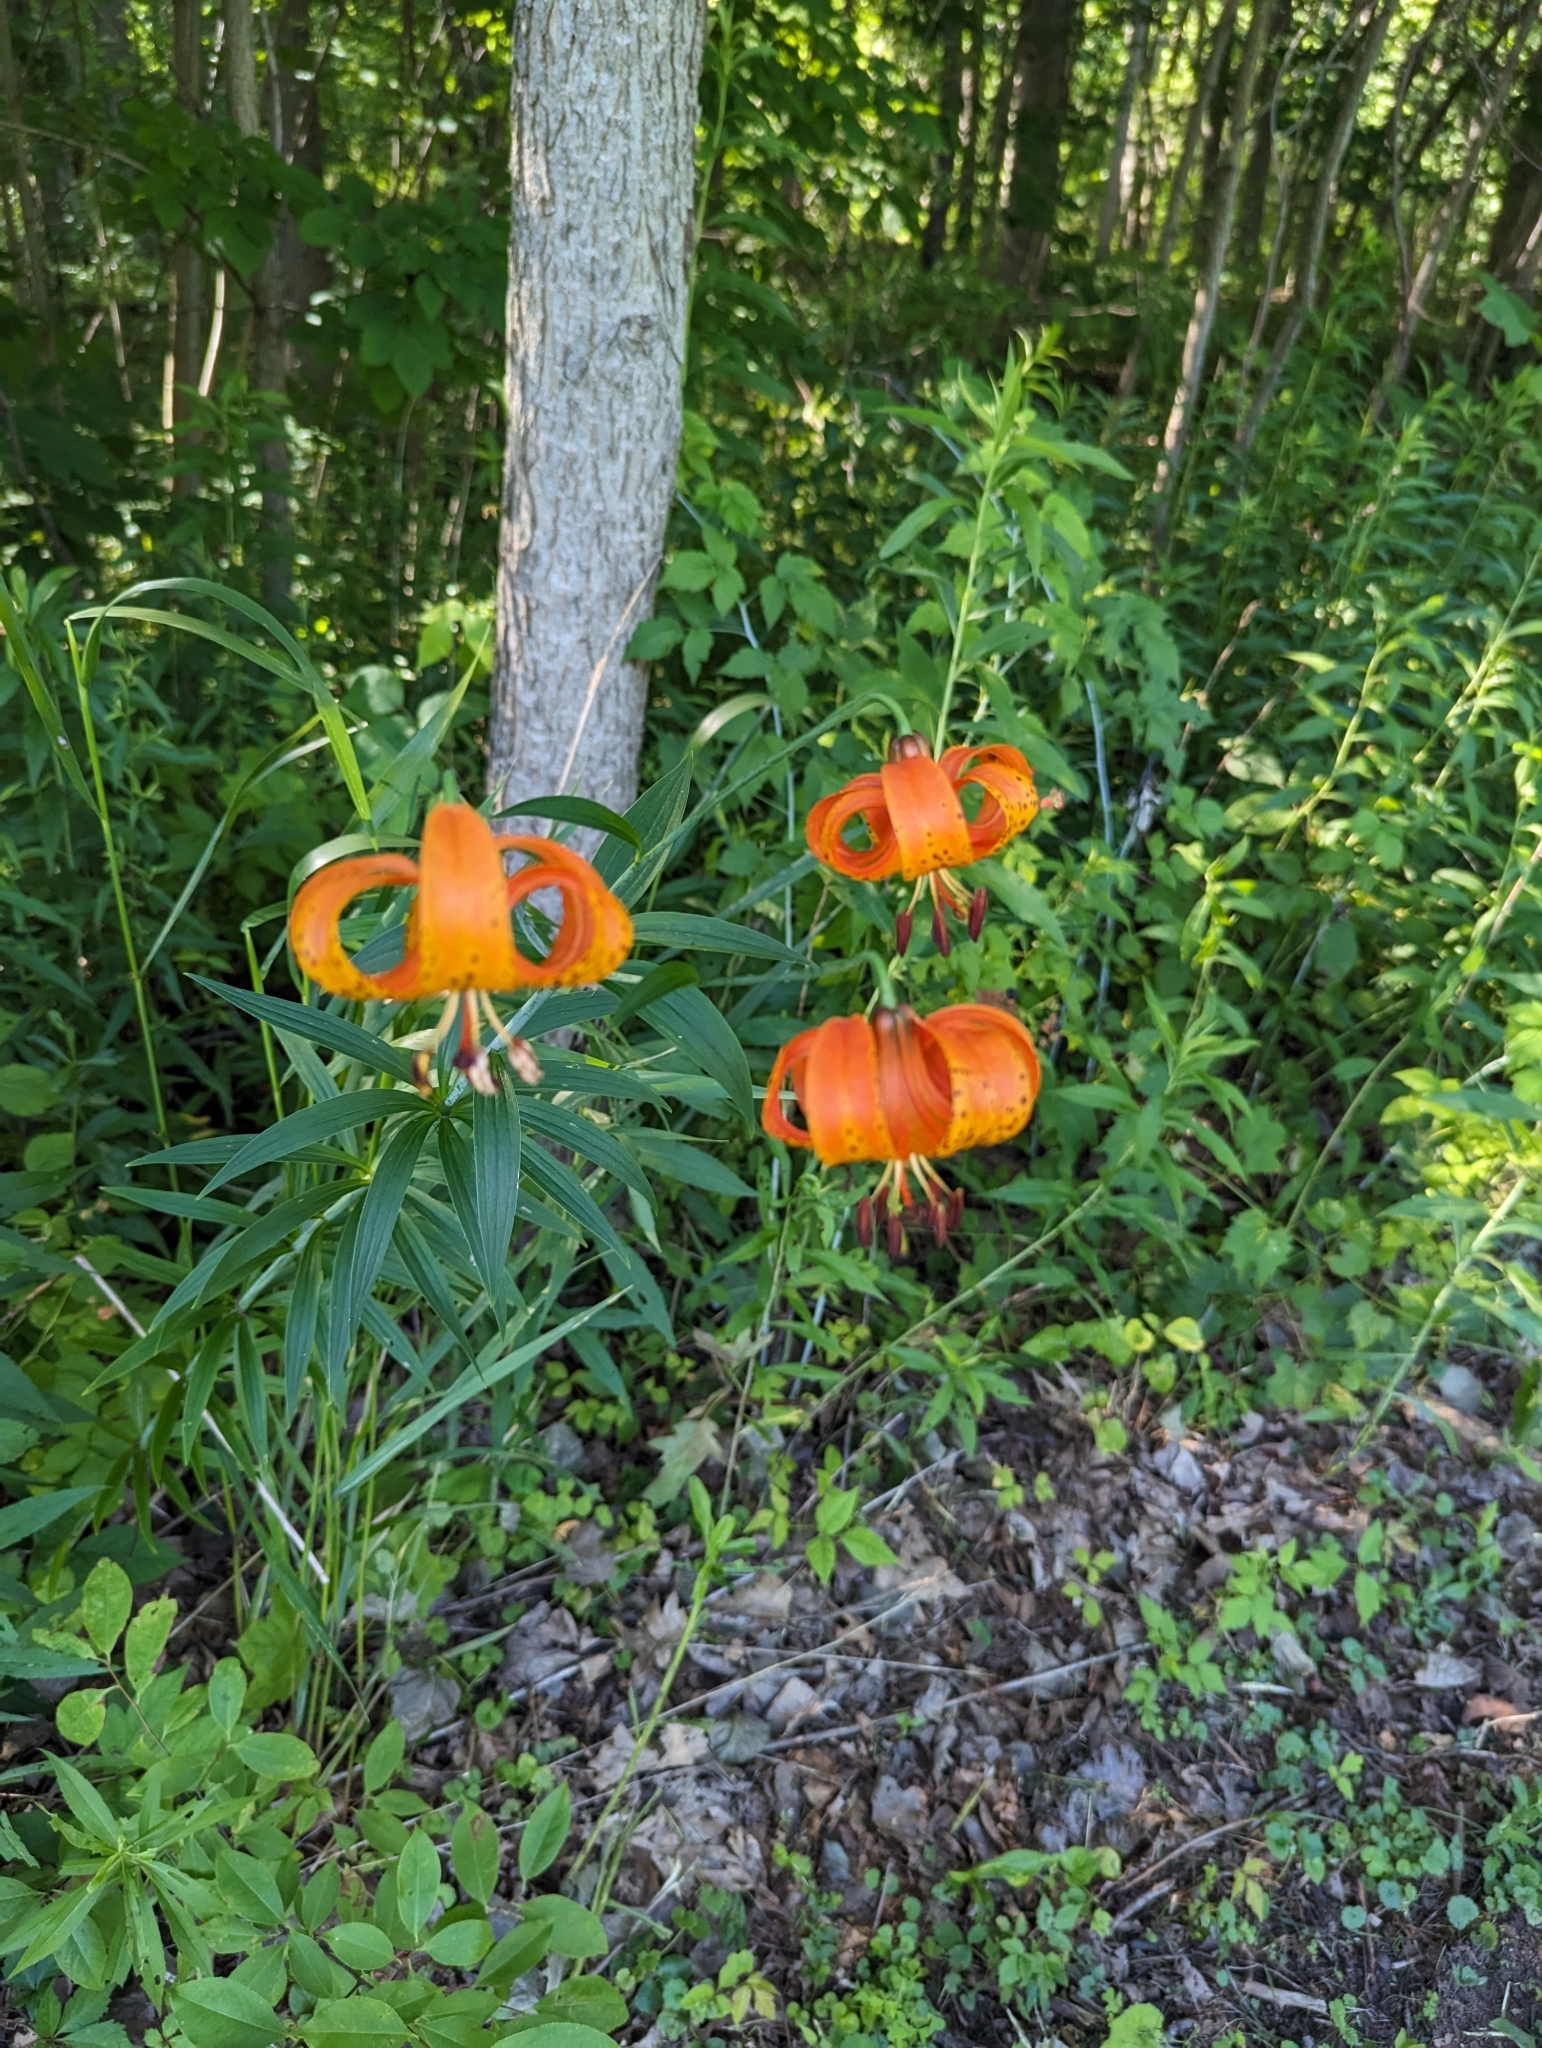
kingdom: Plantae
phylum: Tracheophyta
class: Liliopsida
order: Liliales
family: Liliaceae
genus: Lilium
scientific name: Lilium michiganense
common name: Michigan lily
